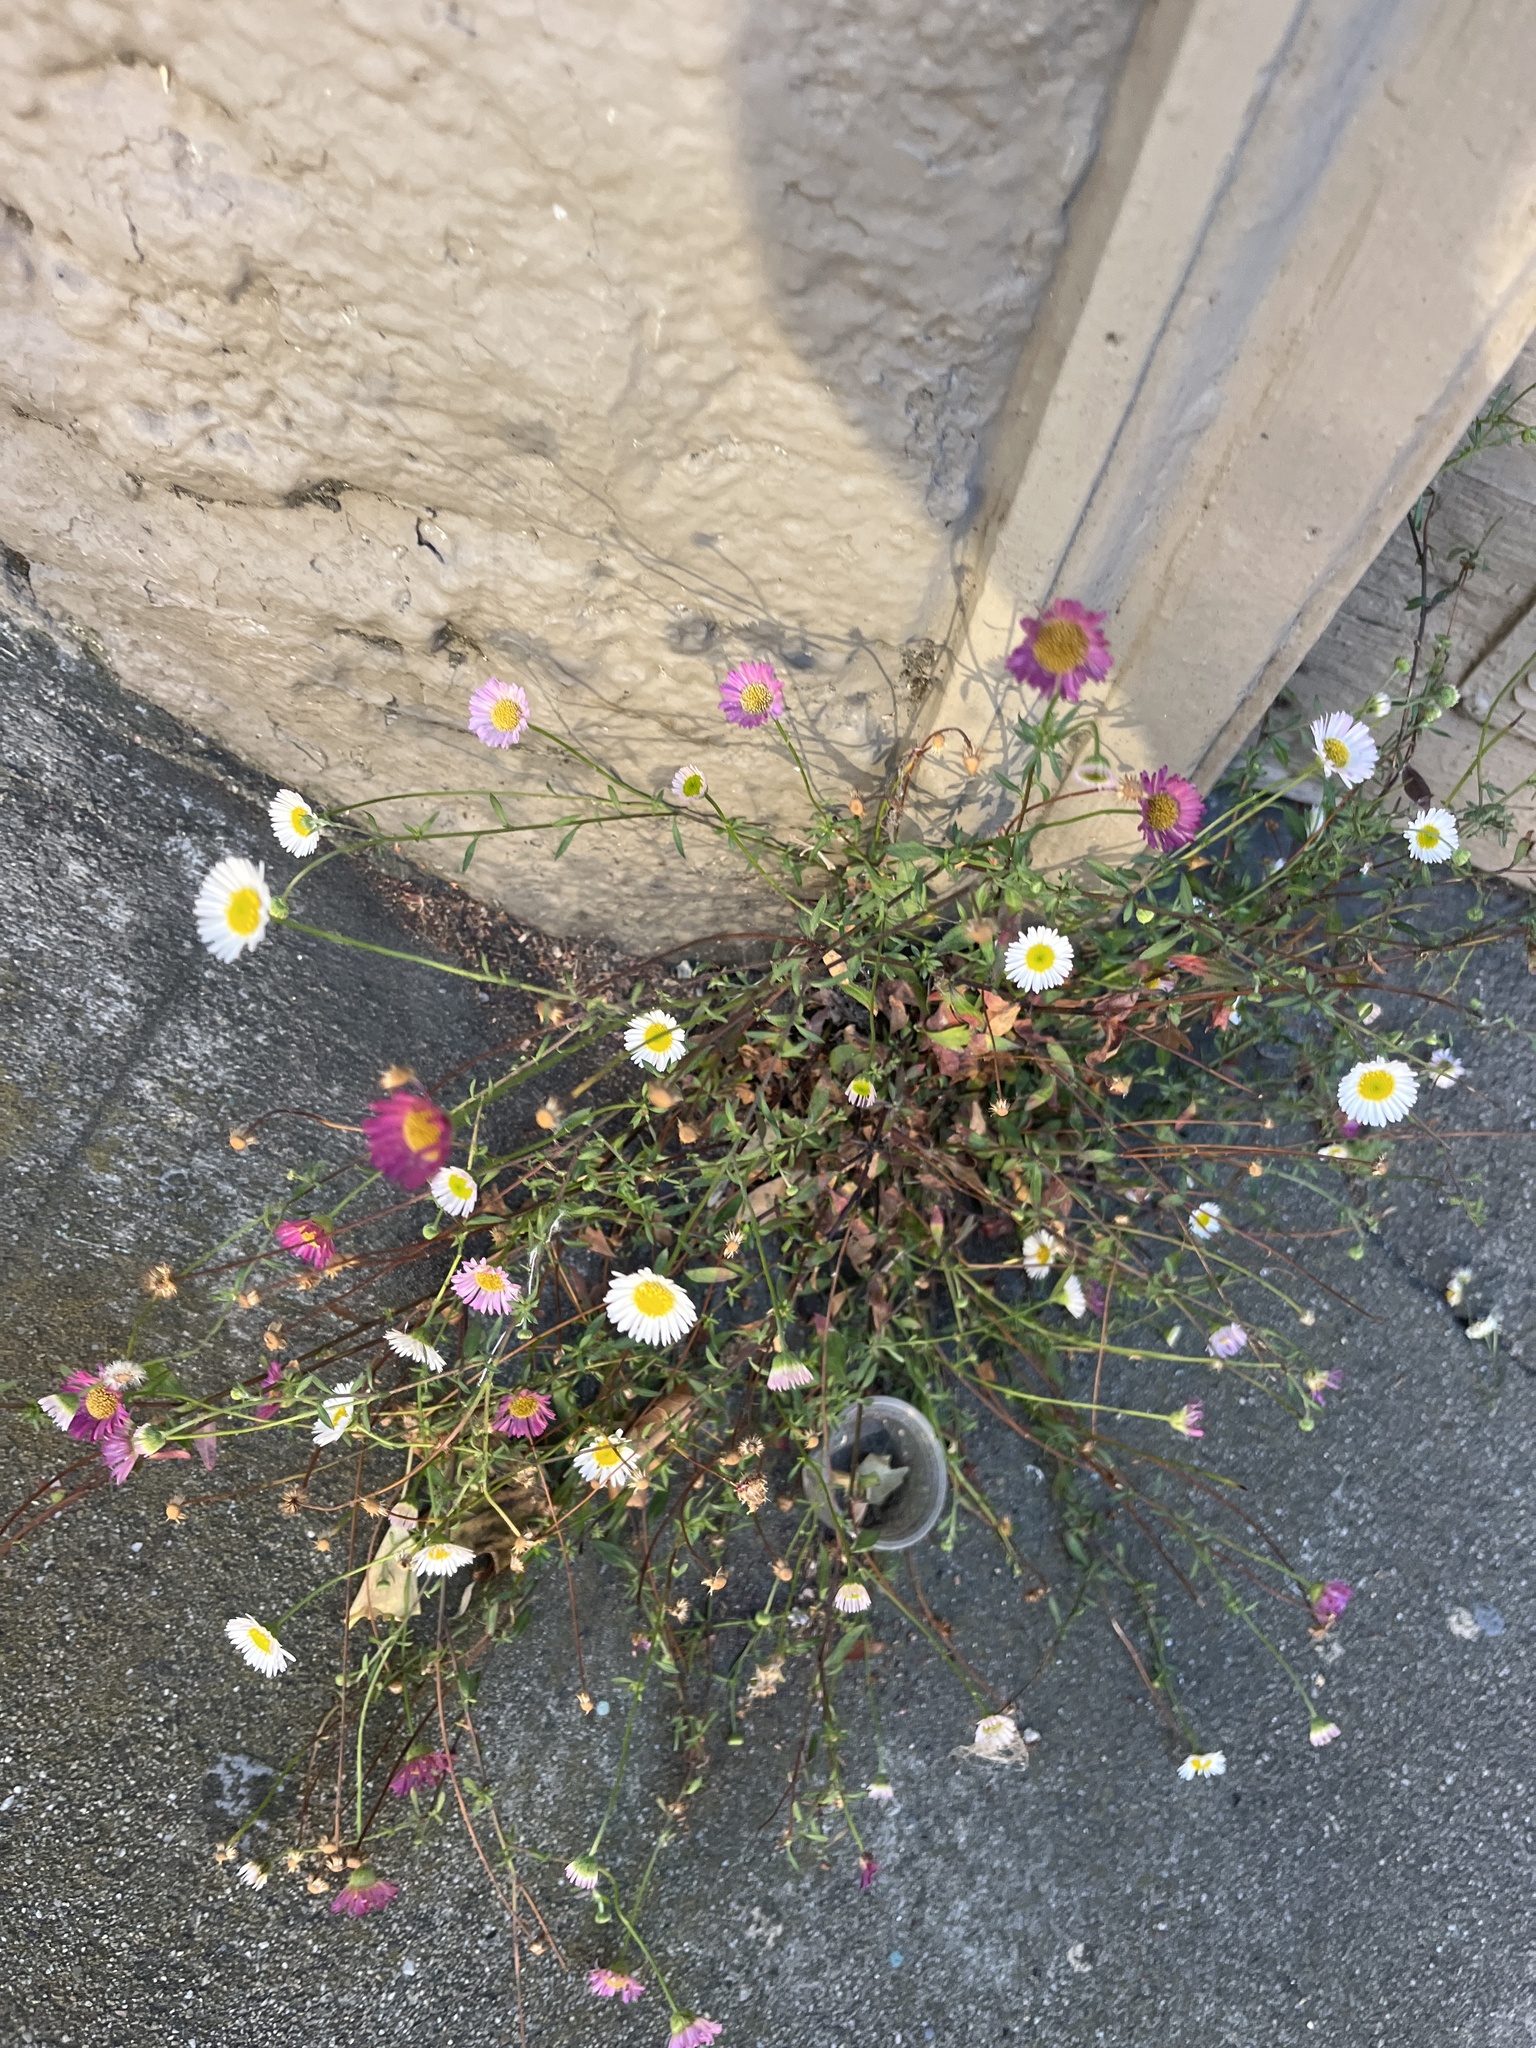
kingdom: Plantae
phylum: Tracheophyta
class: Magnoliopsida
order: Asterales
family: Asteraceae
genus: Erigeron
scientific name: Erigeron karvinskianus
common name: Mexican fleabane
